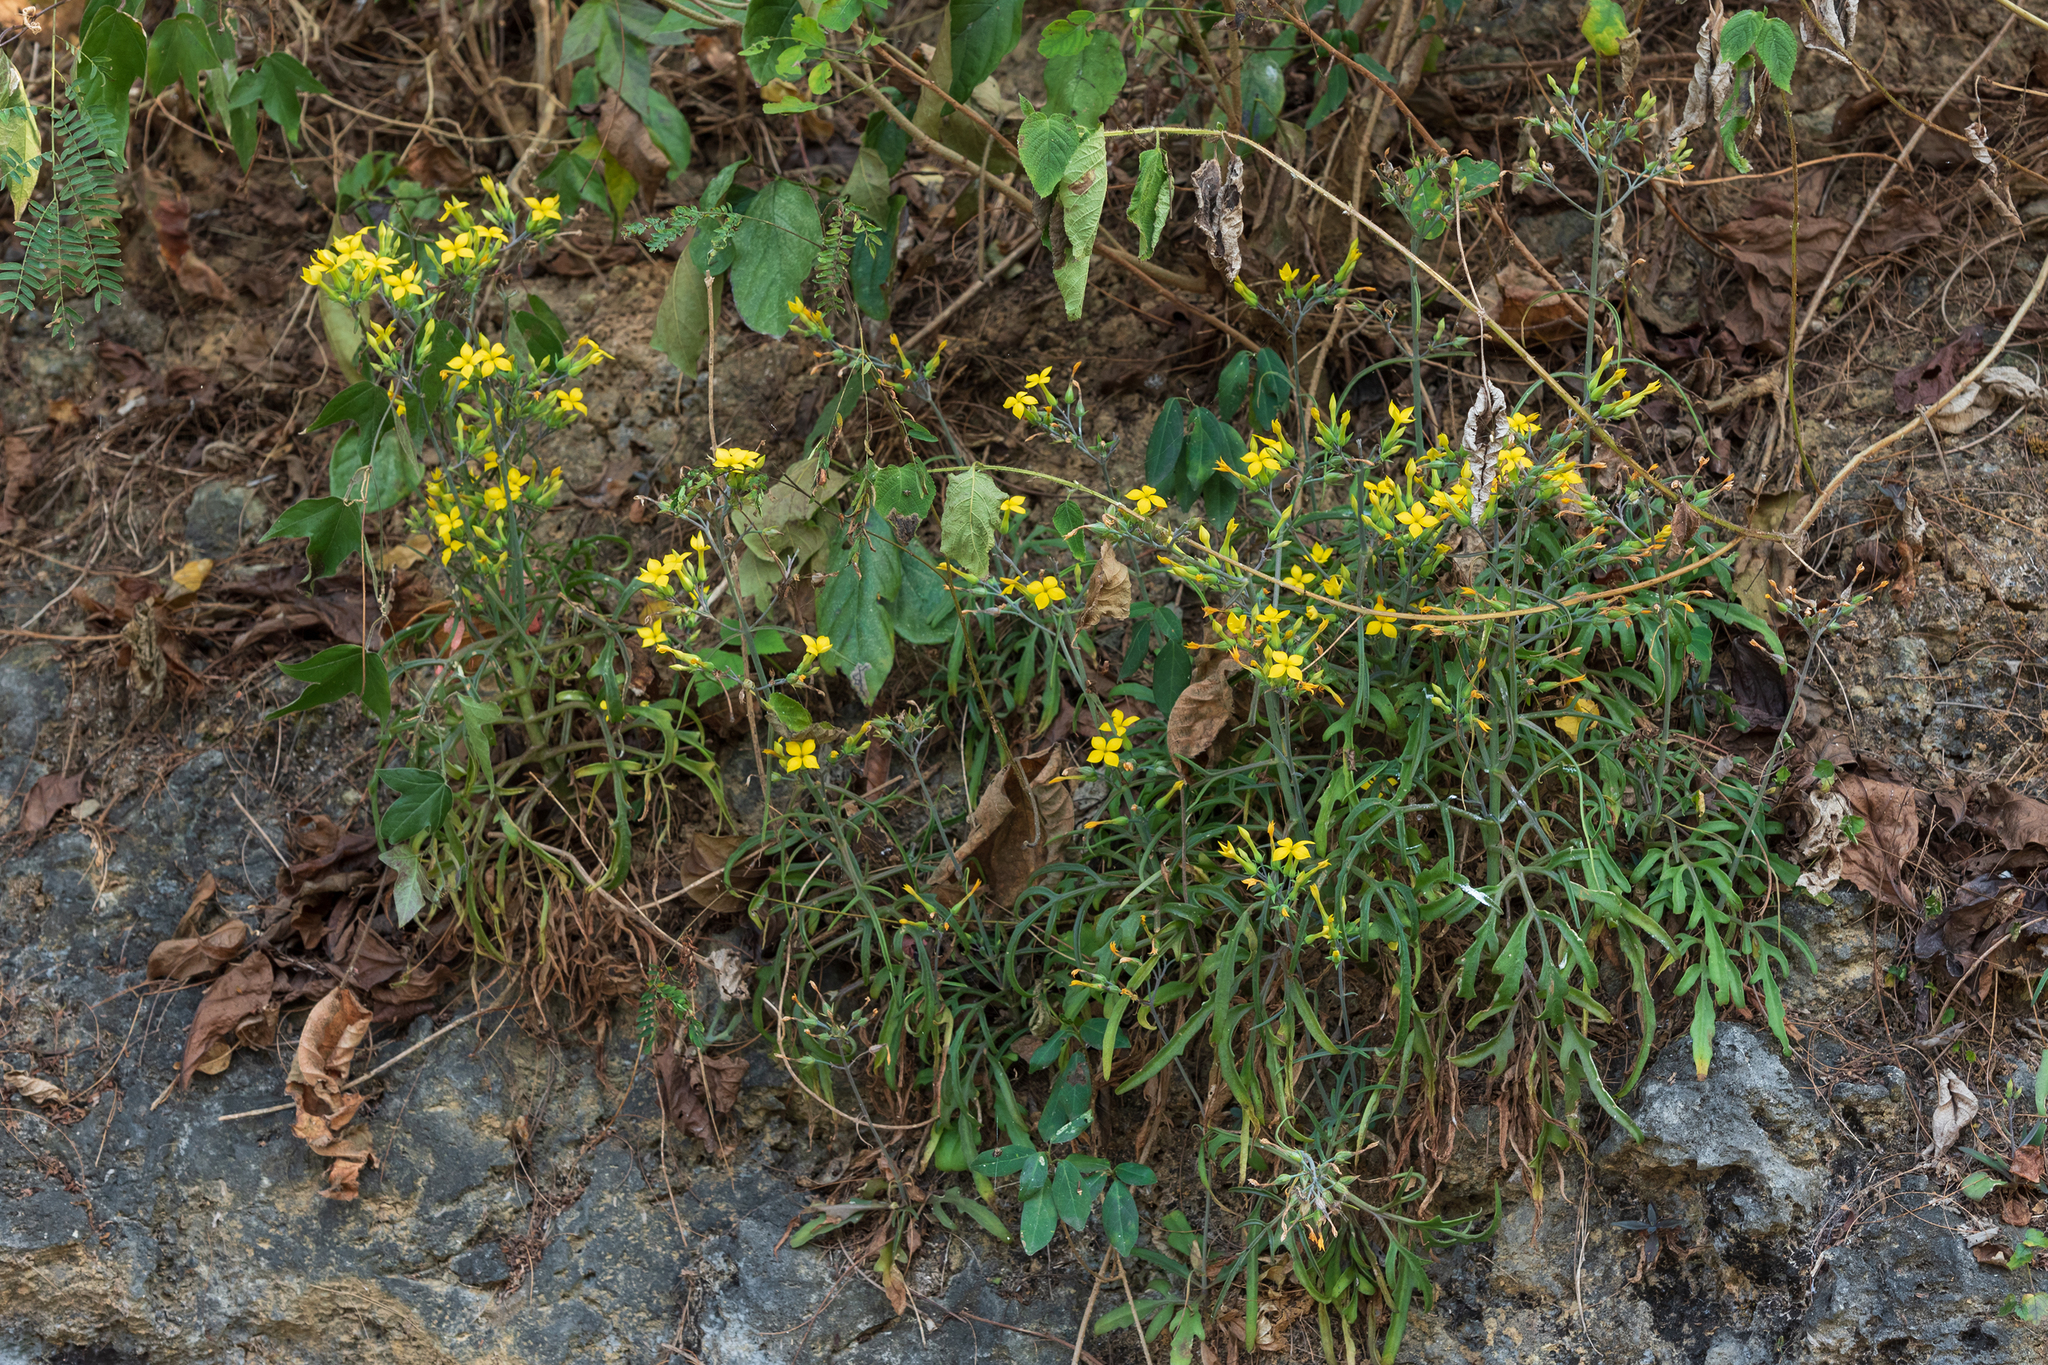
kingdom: Plantae
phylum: Tracheophyta
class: Magnoliopsida
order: Saxifragales
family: Crassulaceae
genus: Kalanchoe
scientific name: Kalanchoe ceratophylla
